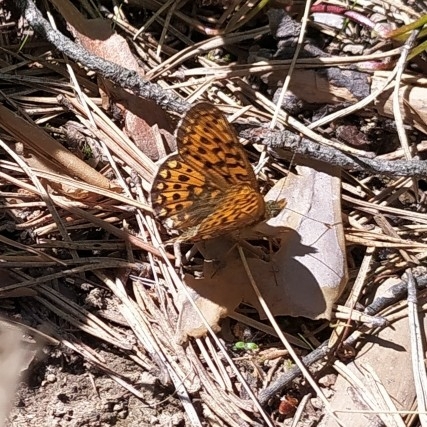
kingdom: Animalia
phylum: Arthropoda
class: Insecta
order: Lepidoptera
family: Nymphalidae
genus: Clossiana
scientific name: Clossiana euphrosyne
